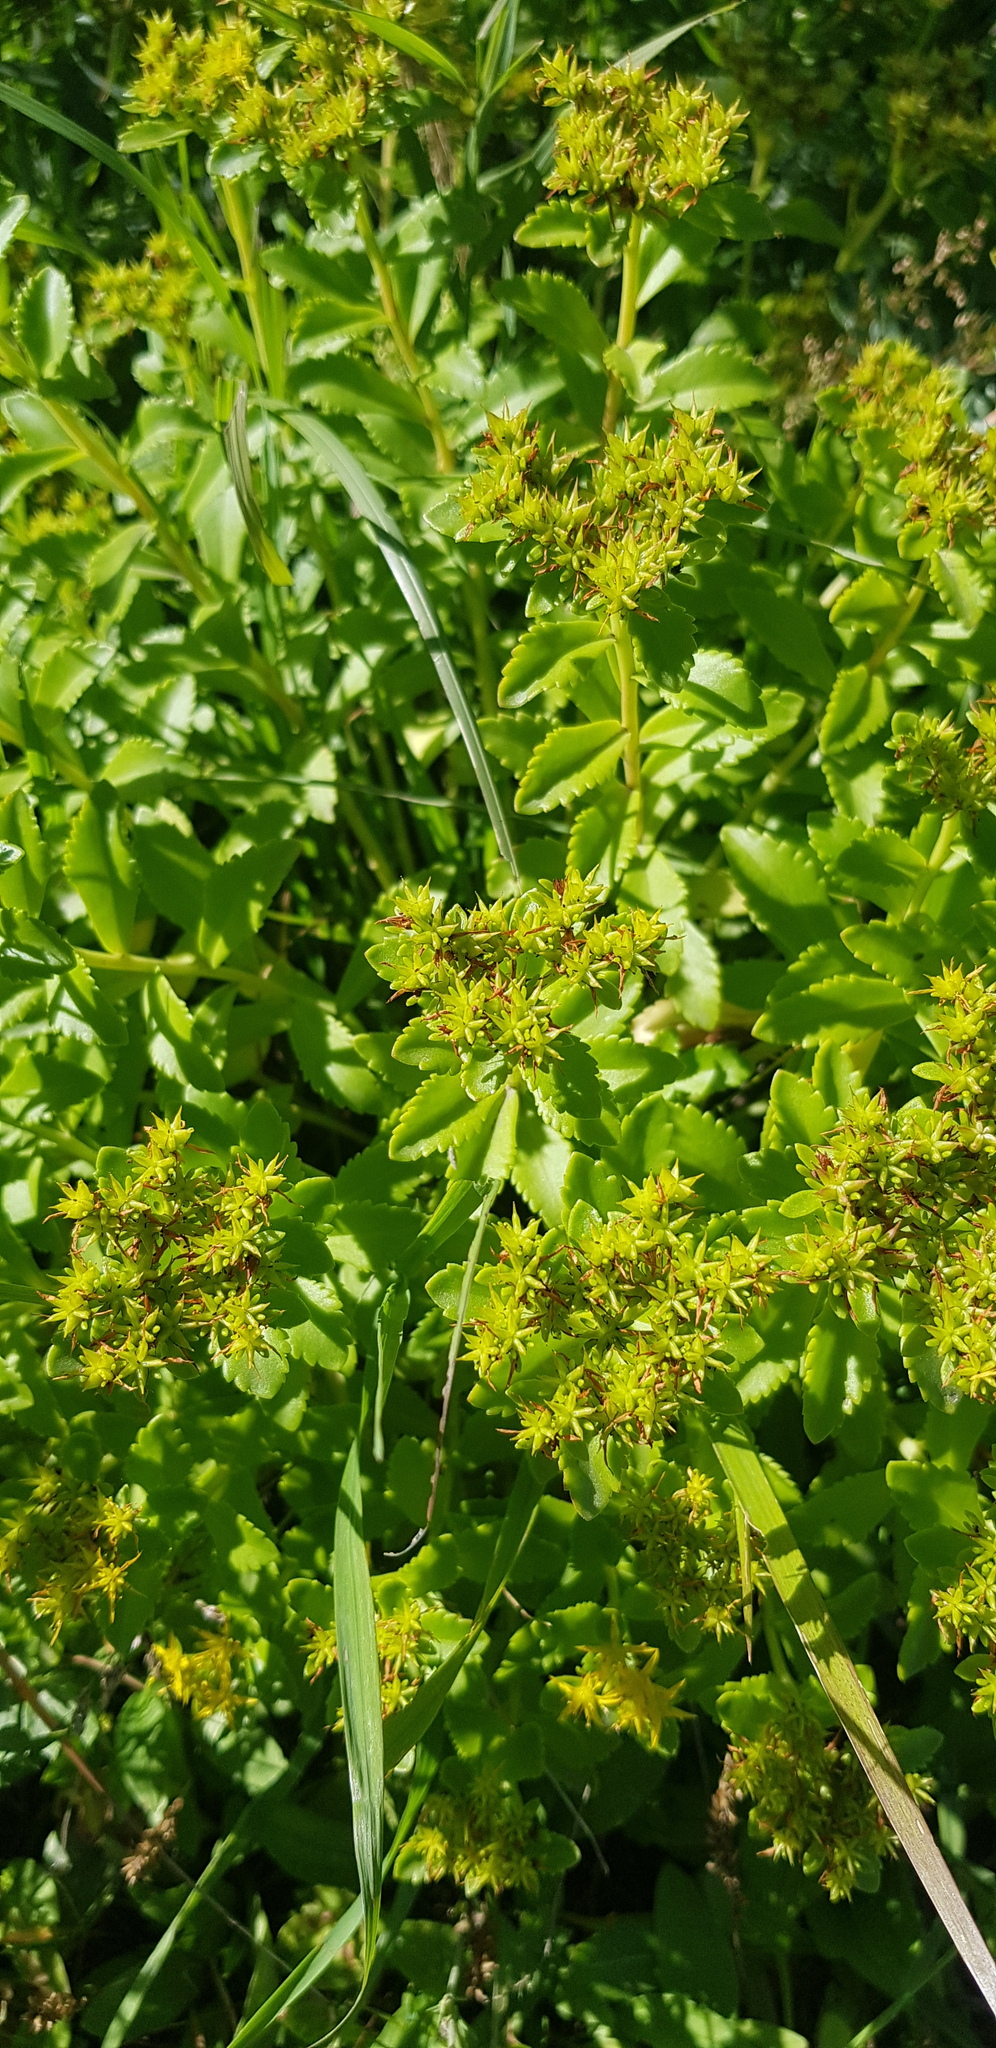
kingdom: Plantae
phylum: Tracheophyta
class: Magnoliopsida
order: Saxifragales
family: Crassulaceae
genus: Phedimus
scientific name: Phedimus aizoon
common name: Orpin aizoon
